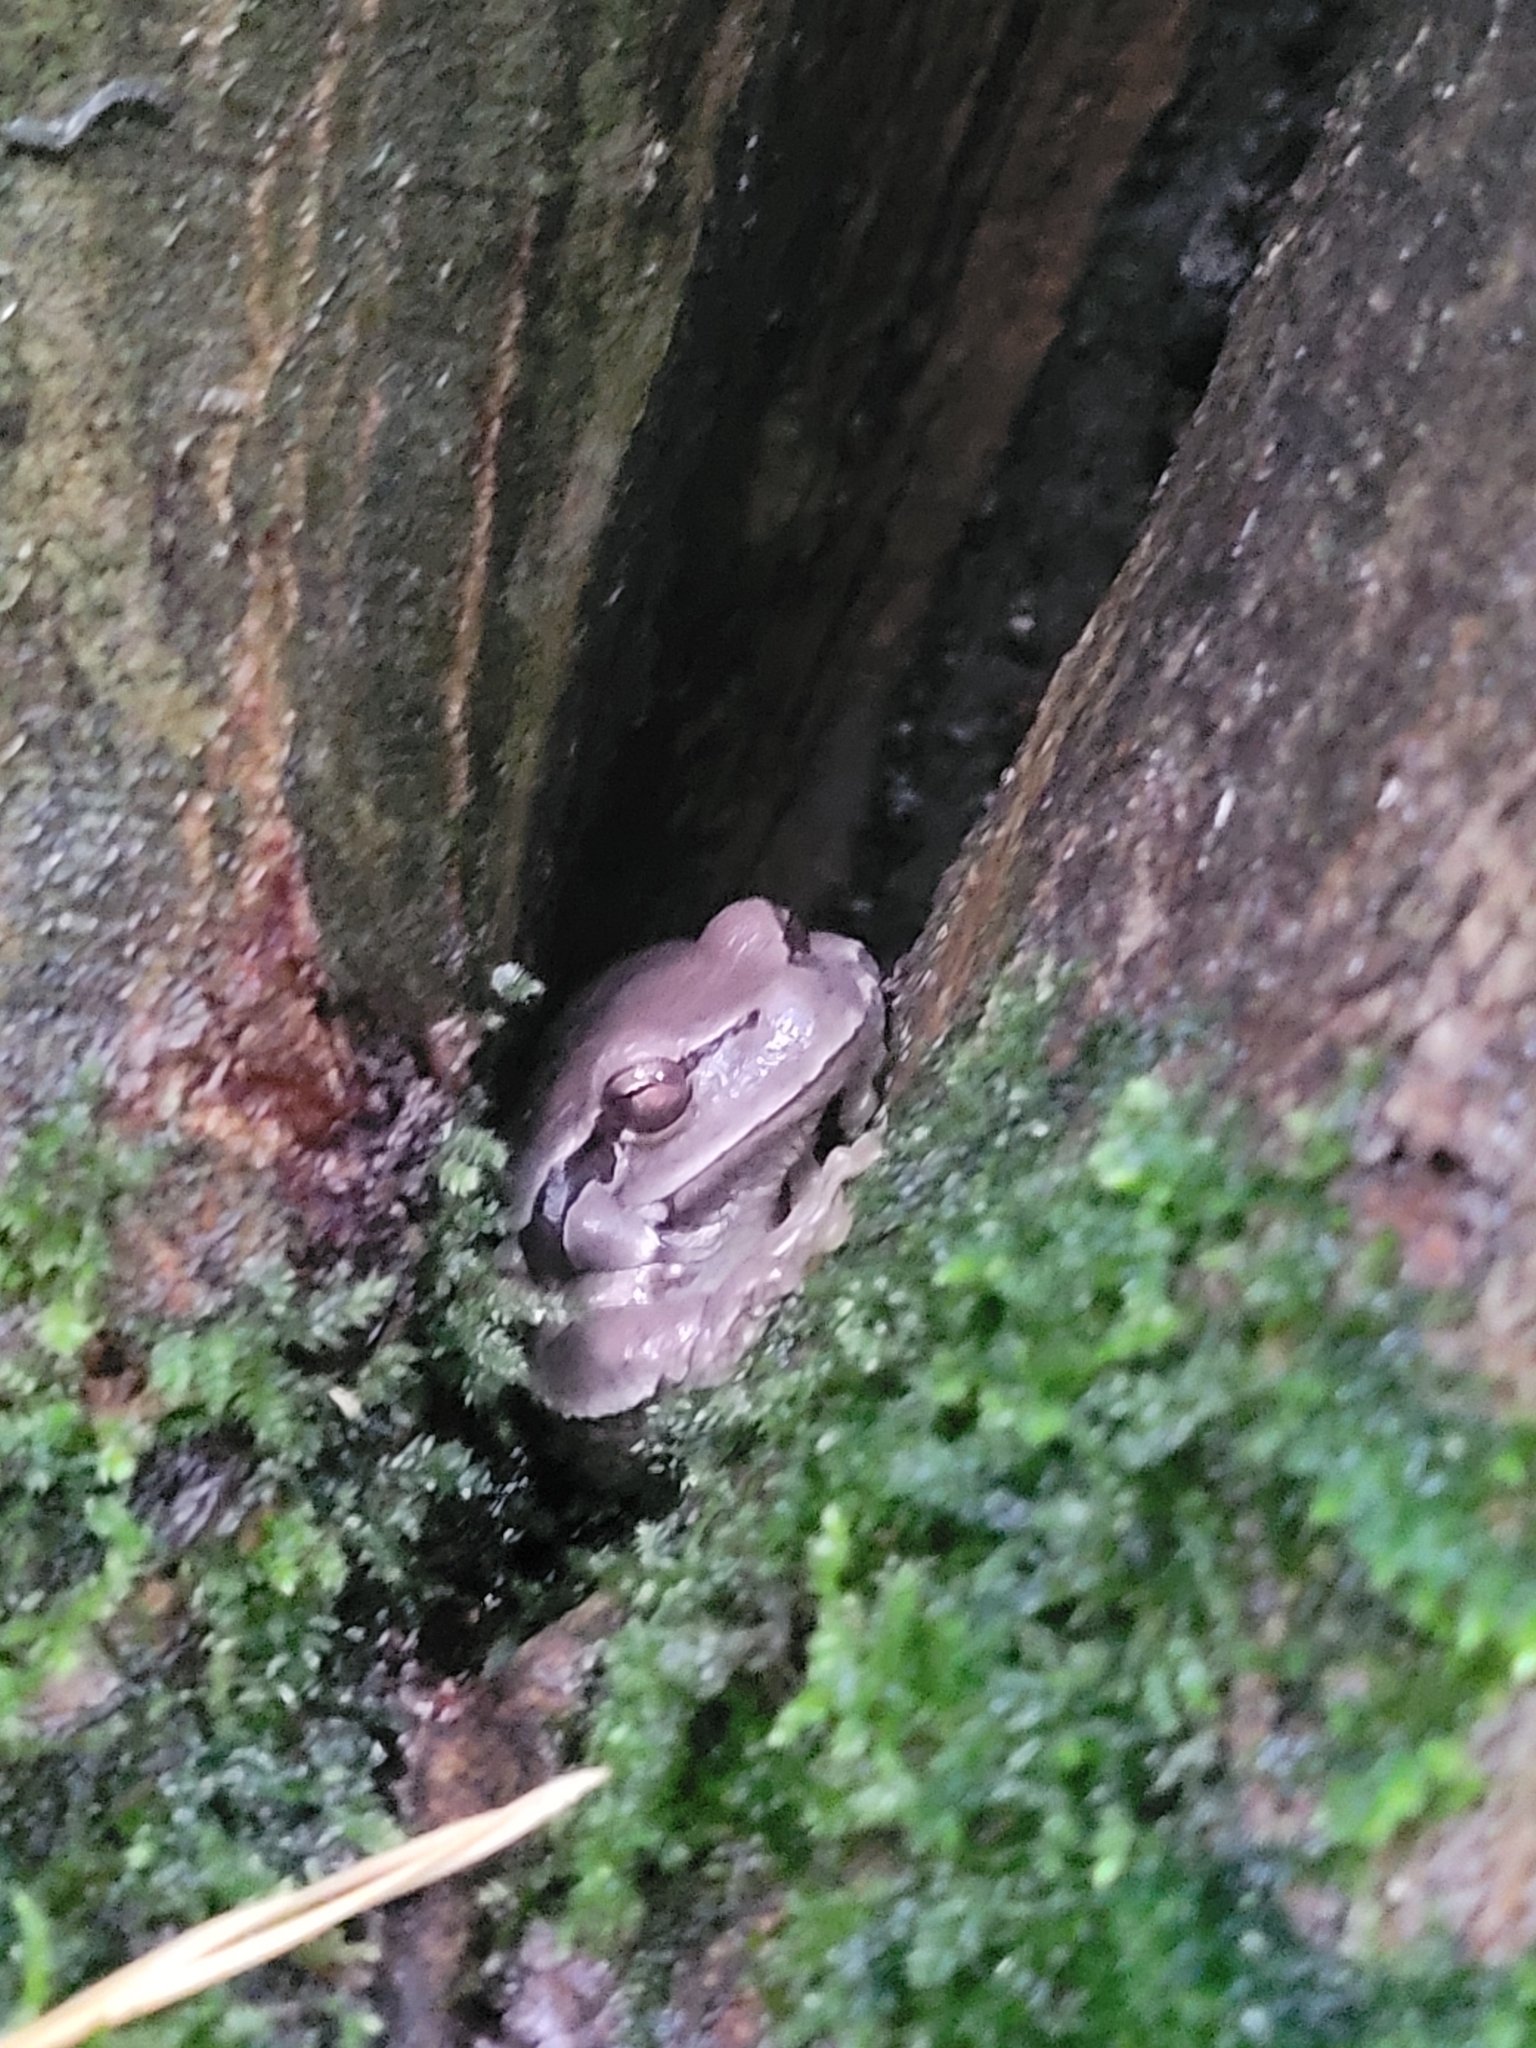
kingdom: Animalia
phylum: Chordata
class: Amphibia
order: Anura
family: Hylidae
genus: Hyla
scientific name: Hyla orientalis
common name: Caucasian treefrog
